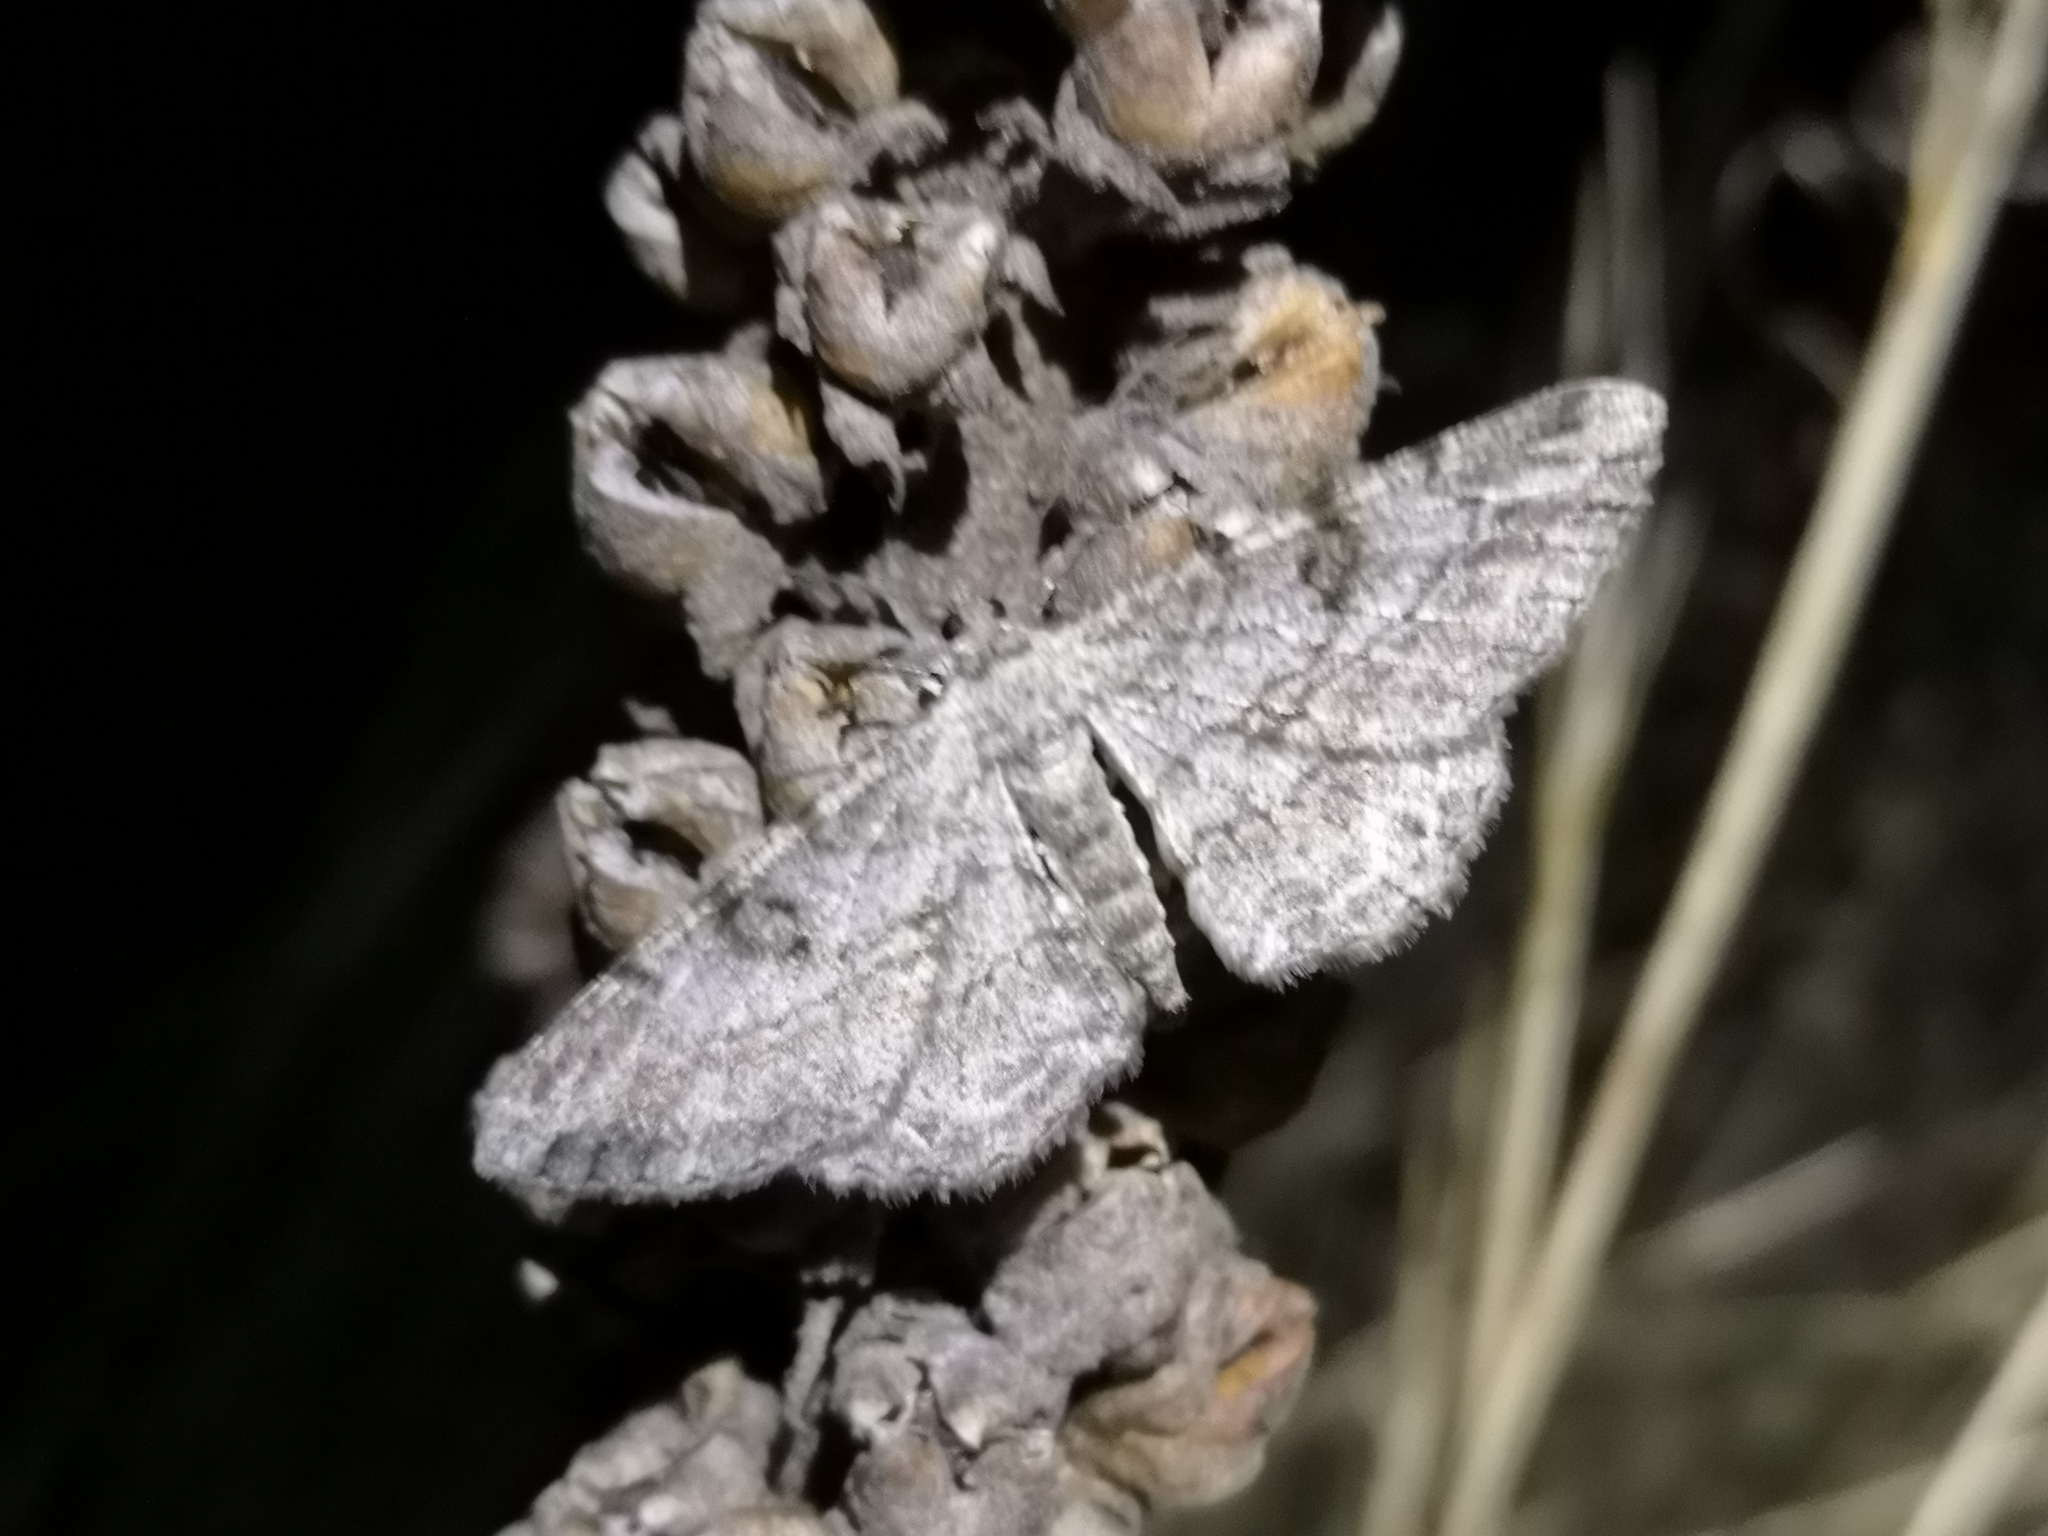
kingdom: Animalia
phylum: Arthropoda
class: Insecta
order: Lepidoptera
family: Geometridae
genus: Peribatodes
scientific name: Peribatodes rhomboidaria
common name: Willow beauty
